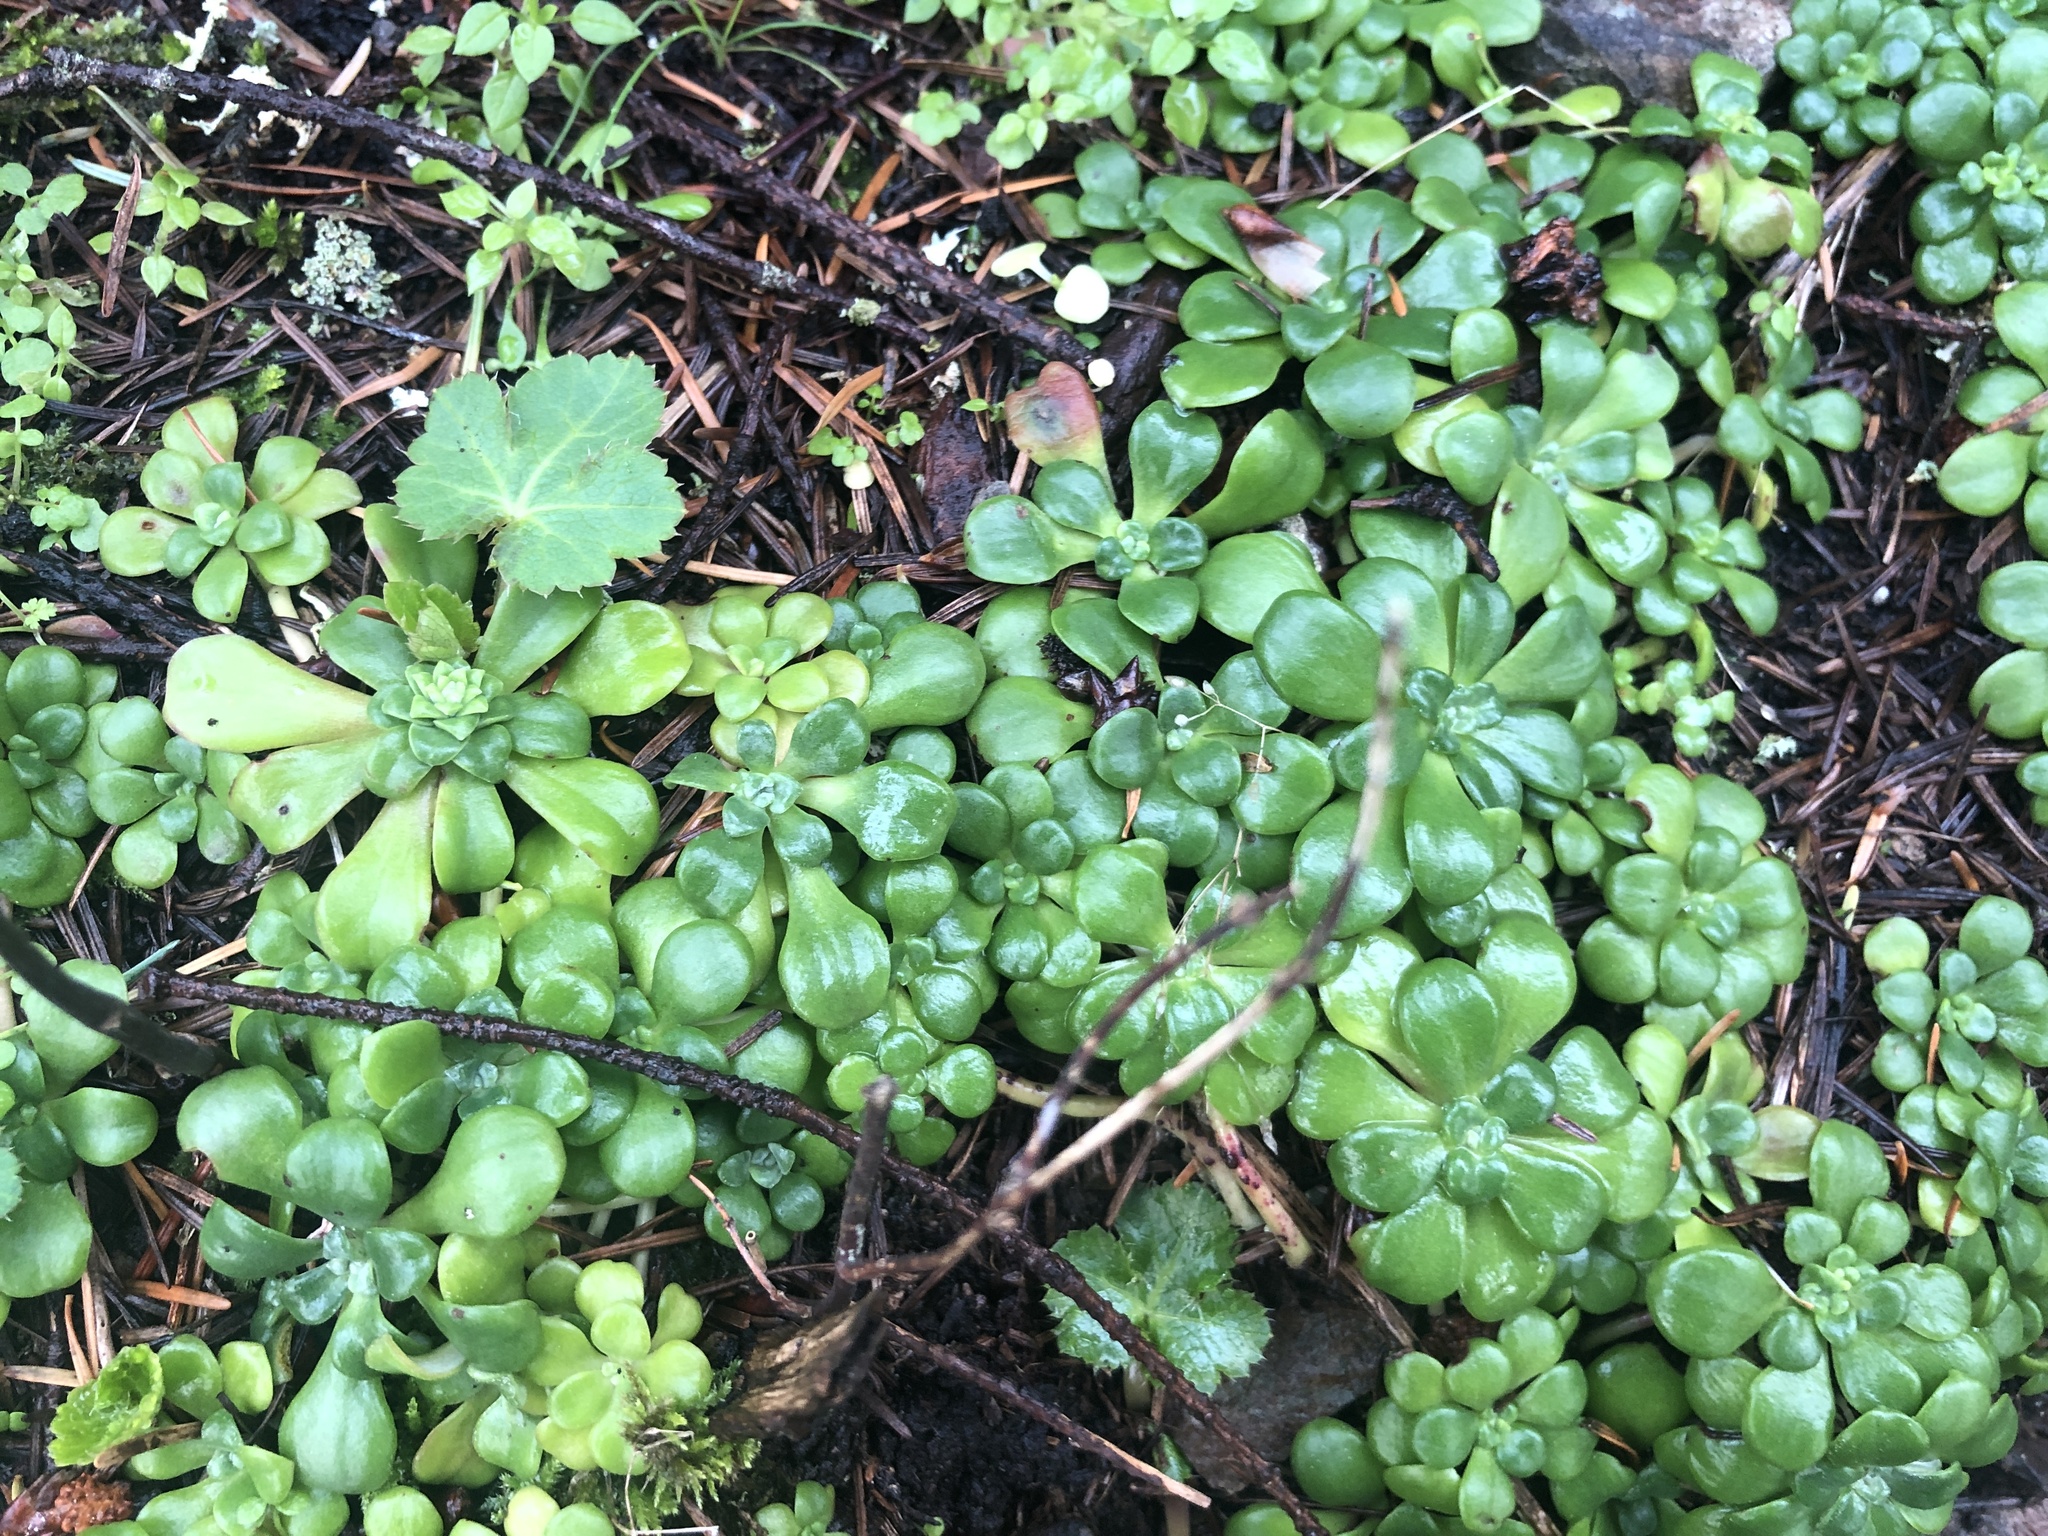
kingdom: Plantae
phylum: Tracheophyta
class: Magnoliopsida
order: Saxifragales
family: Crassulaceae
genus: Sedum
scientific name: Sedum spathulifolium
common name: Colorado stonecrop
